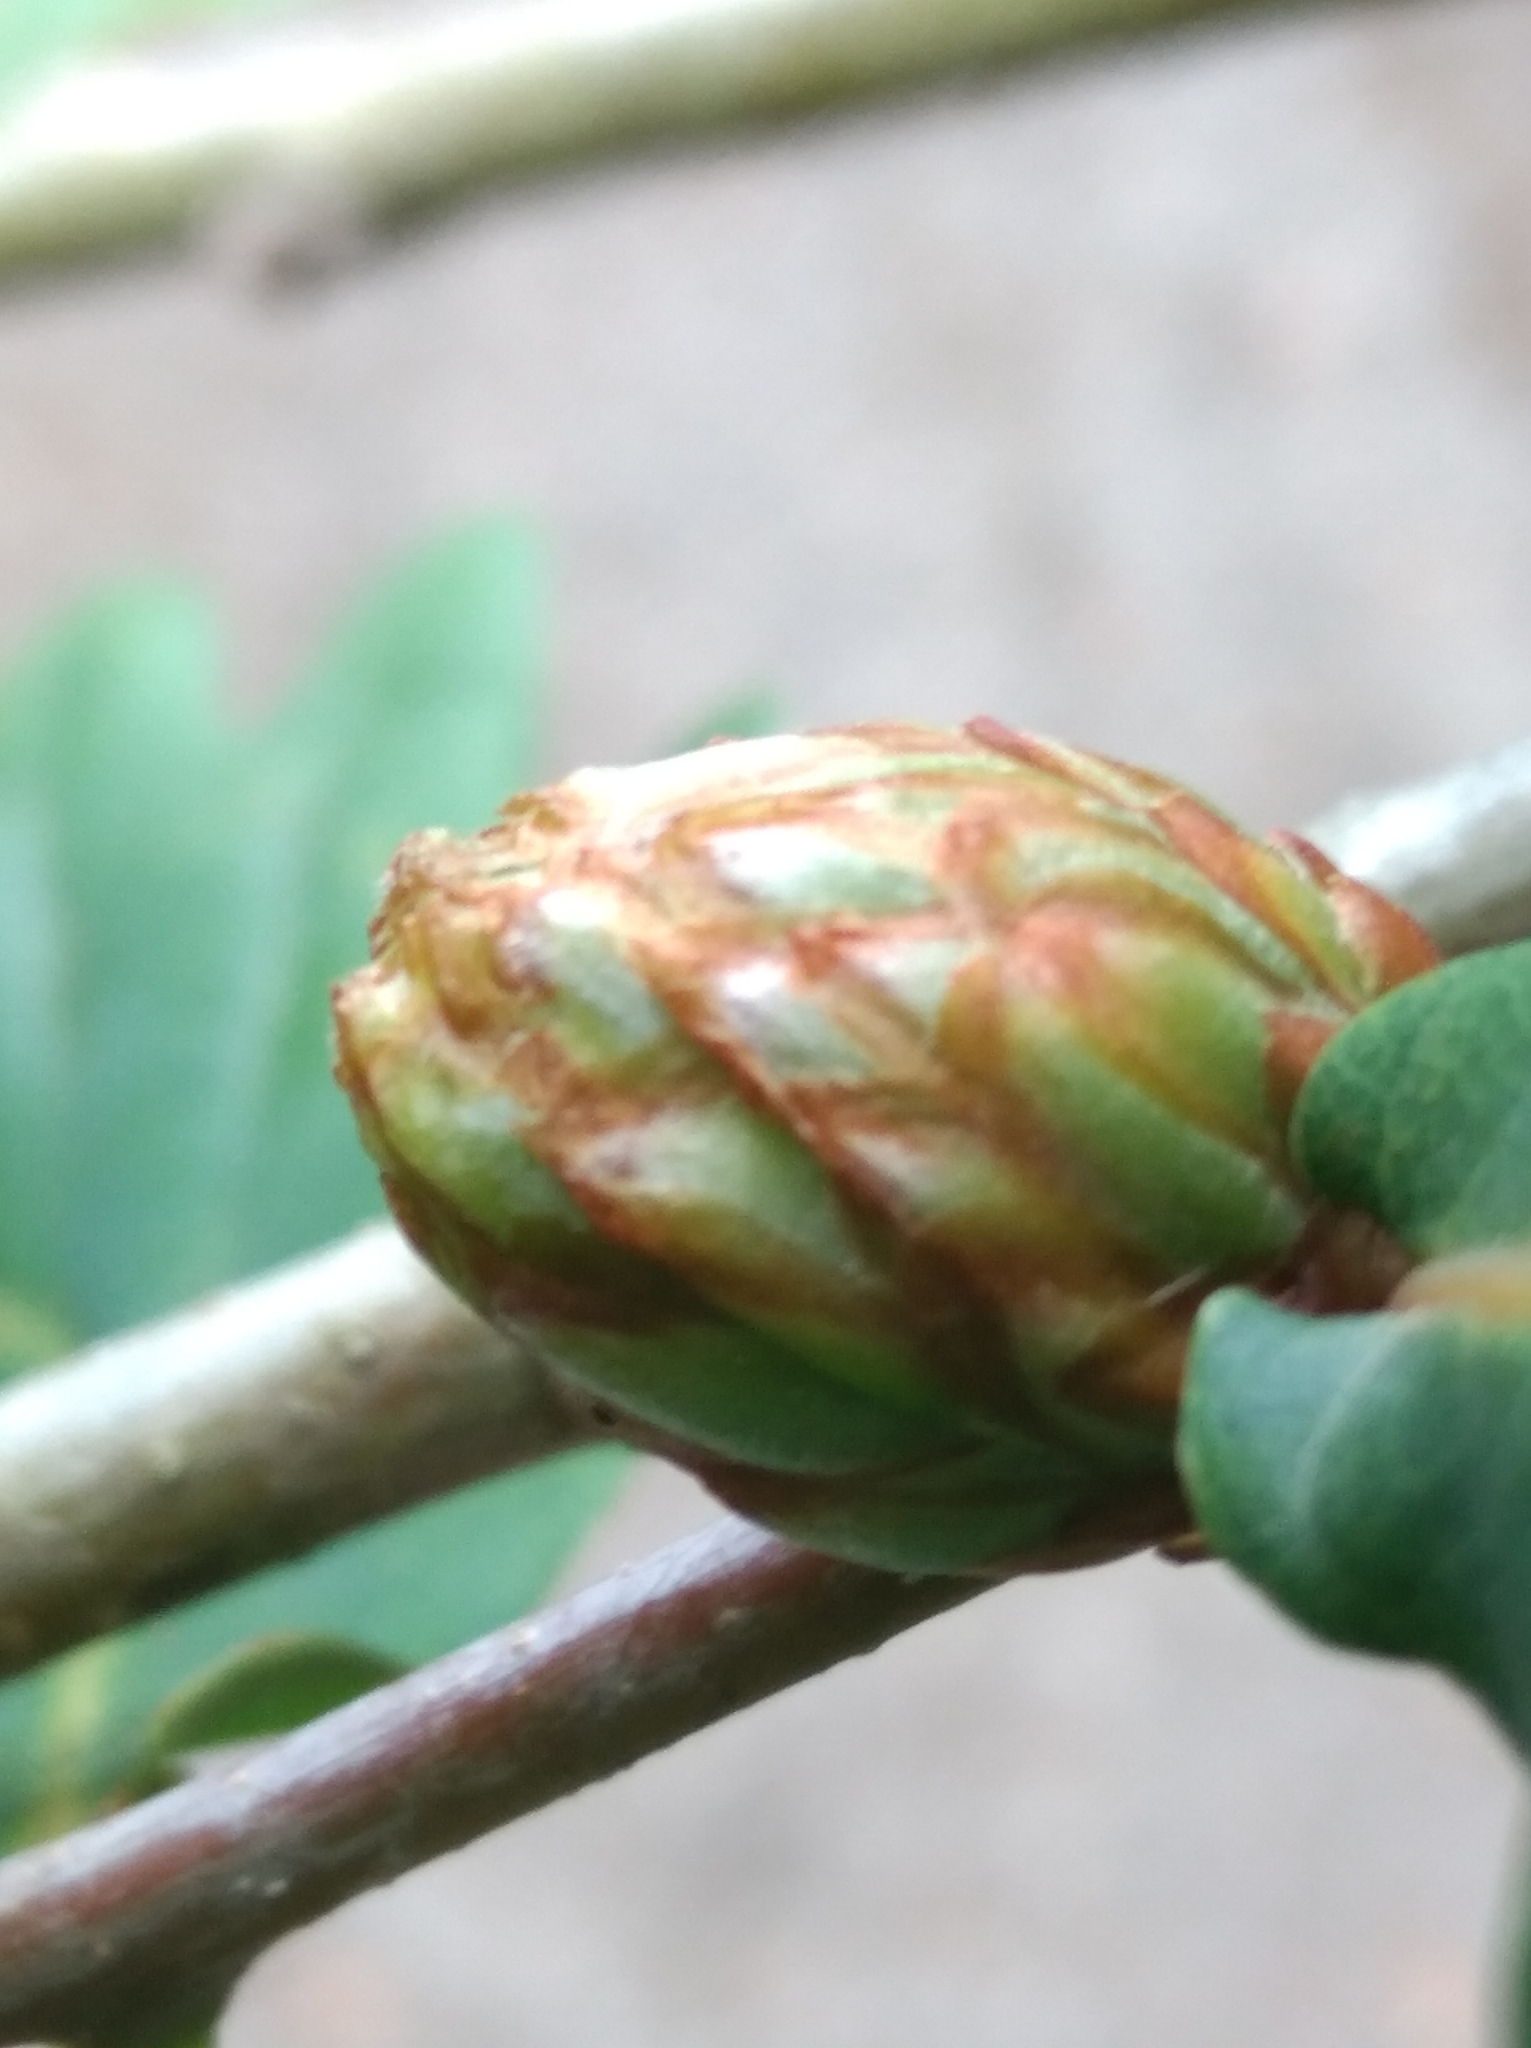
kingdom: Animalia
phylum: Arthropoda
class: Insecta
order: Hymenoptera
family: Cynipidae
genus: Andricus
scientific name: Andricus foecundatrix
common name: Artichoke gall
